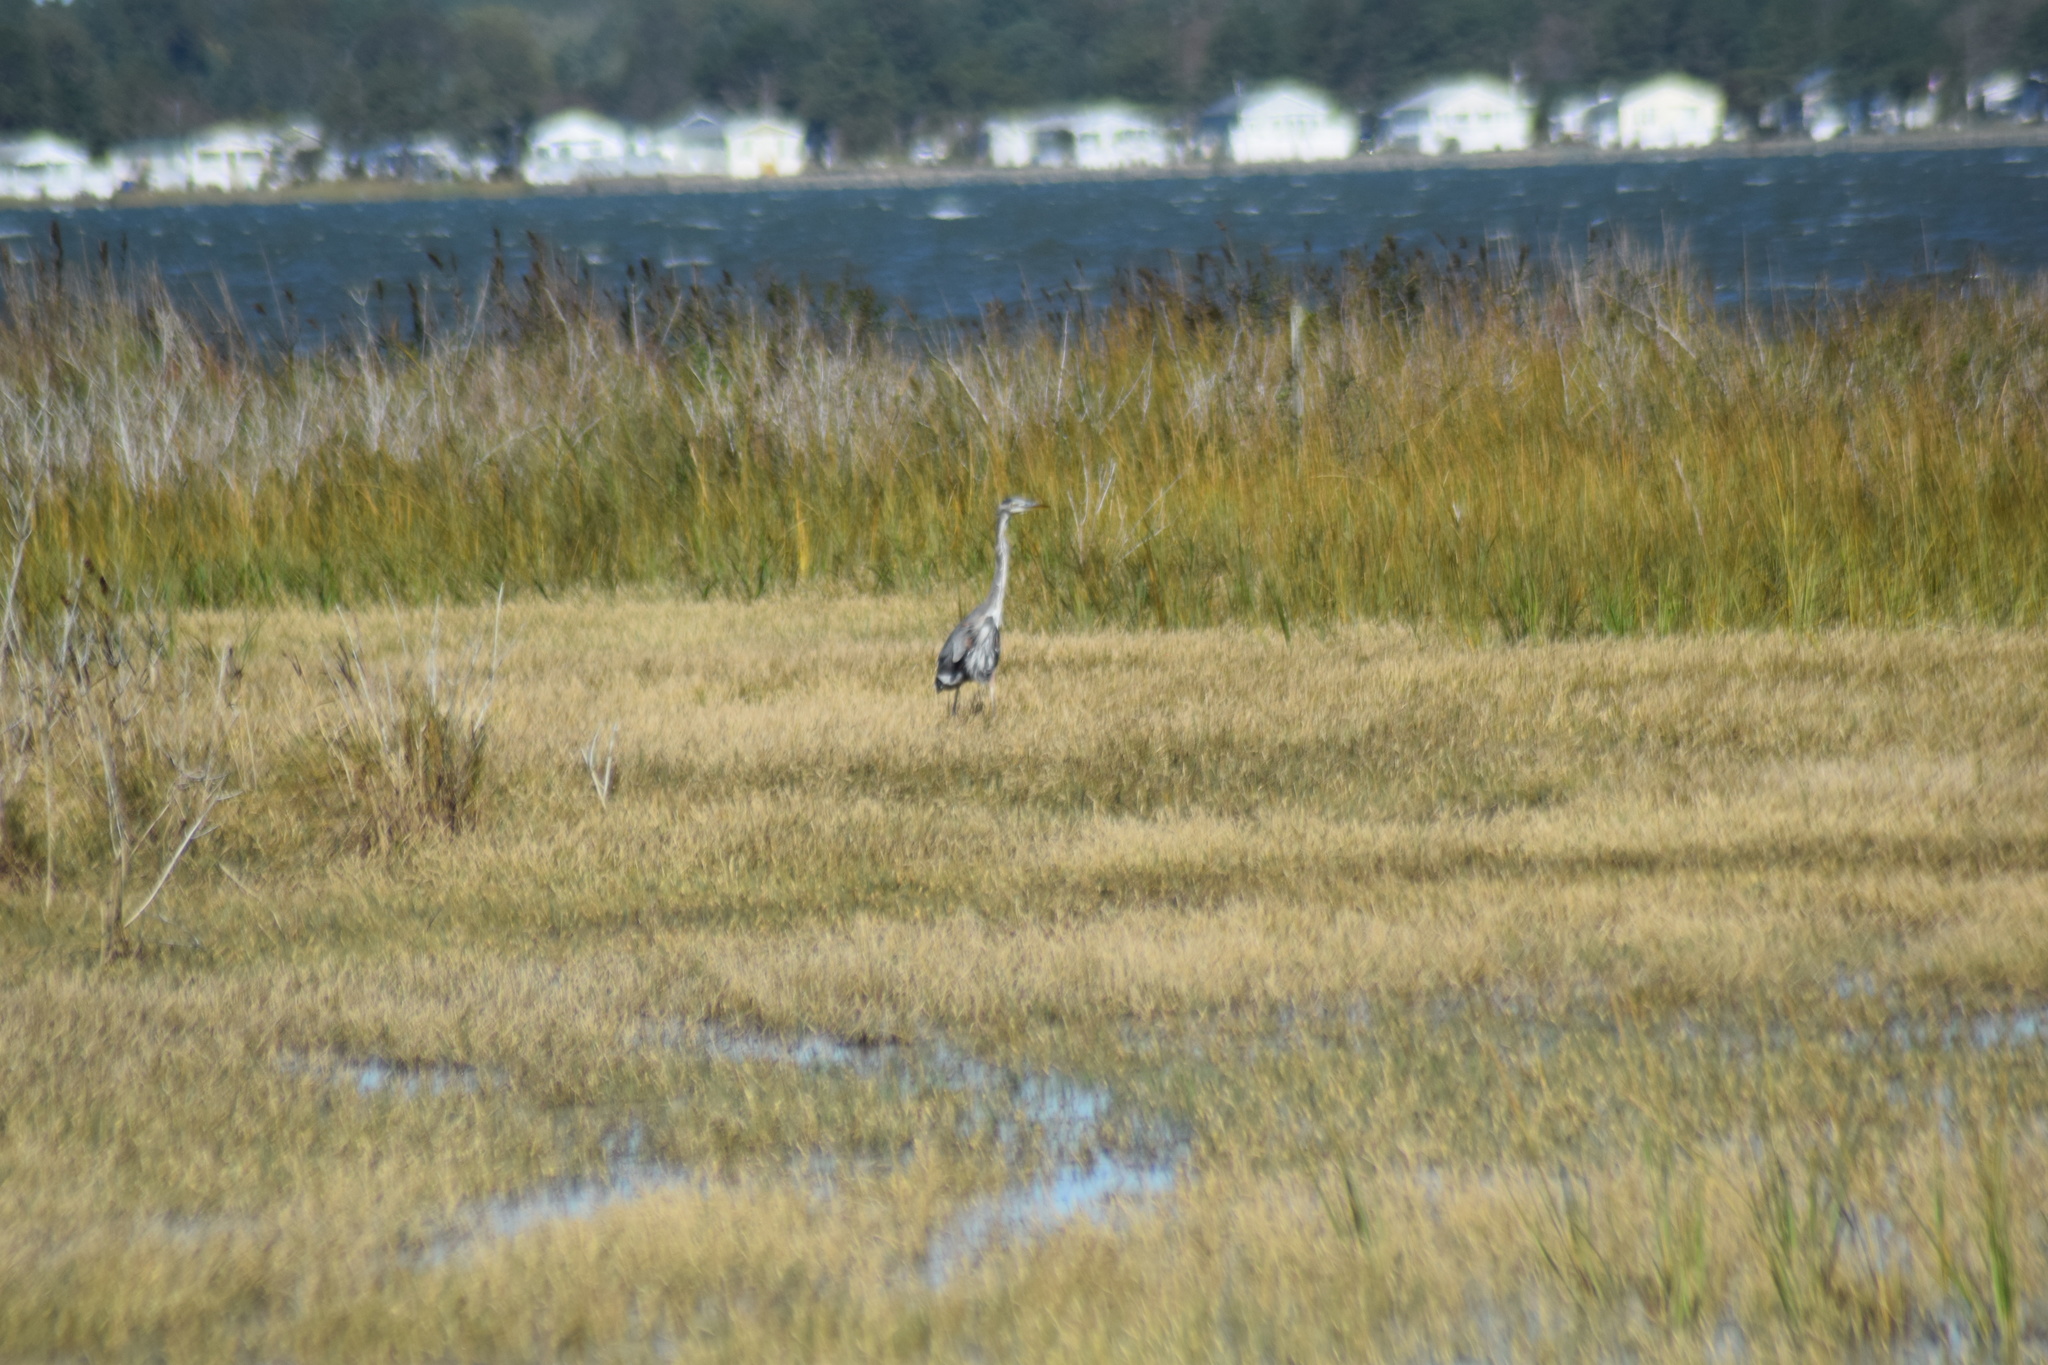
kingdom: Animalia
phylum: Chordata
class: Aves
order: Pelecaniformes
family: Ardeidae
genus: Ardea
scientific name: Ardea herodias
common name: Great blue heron
